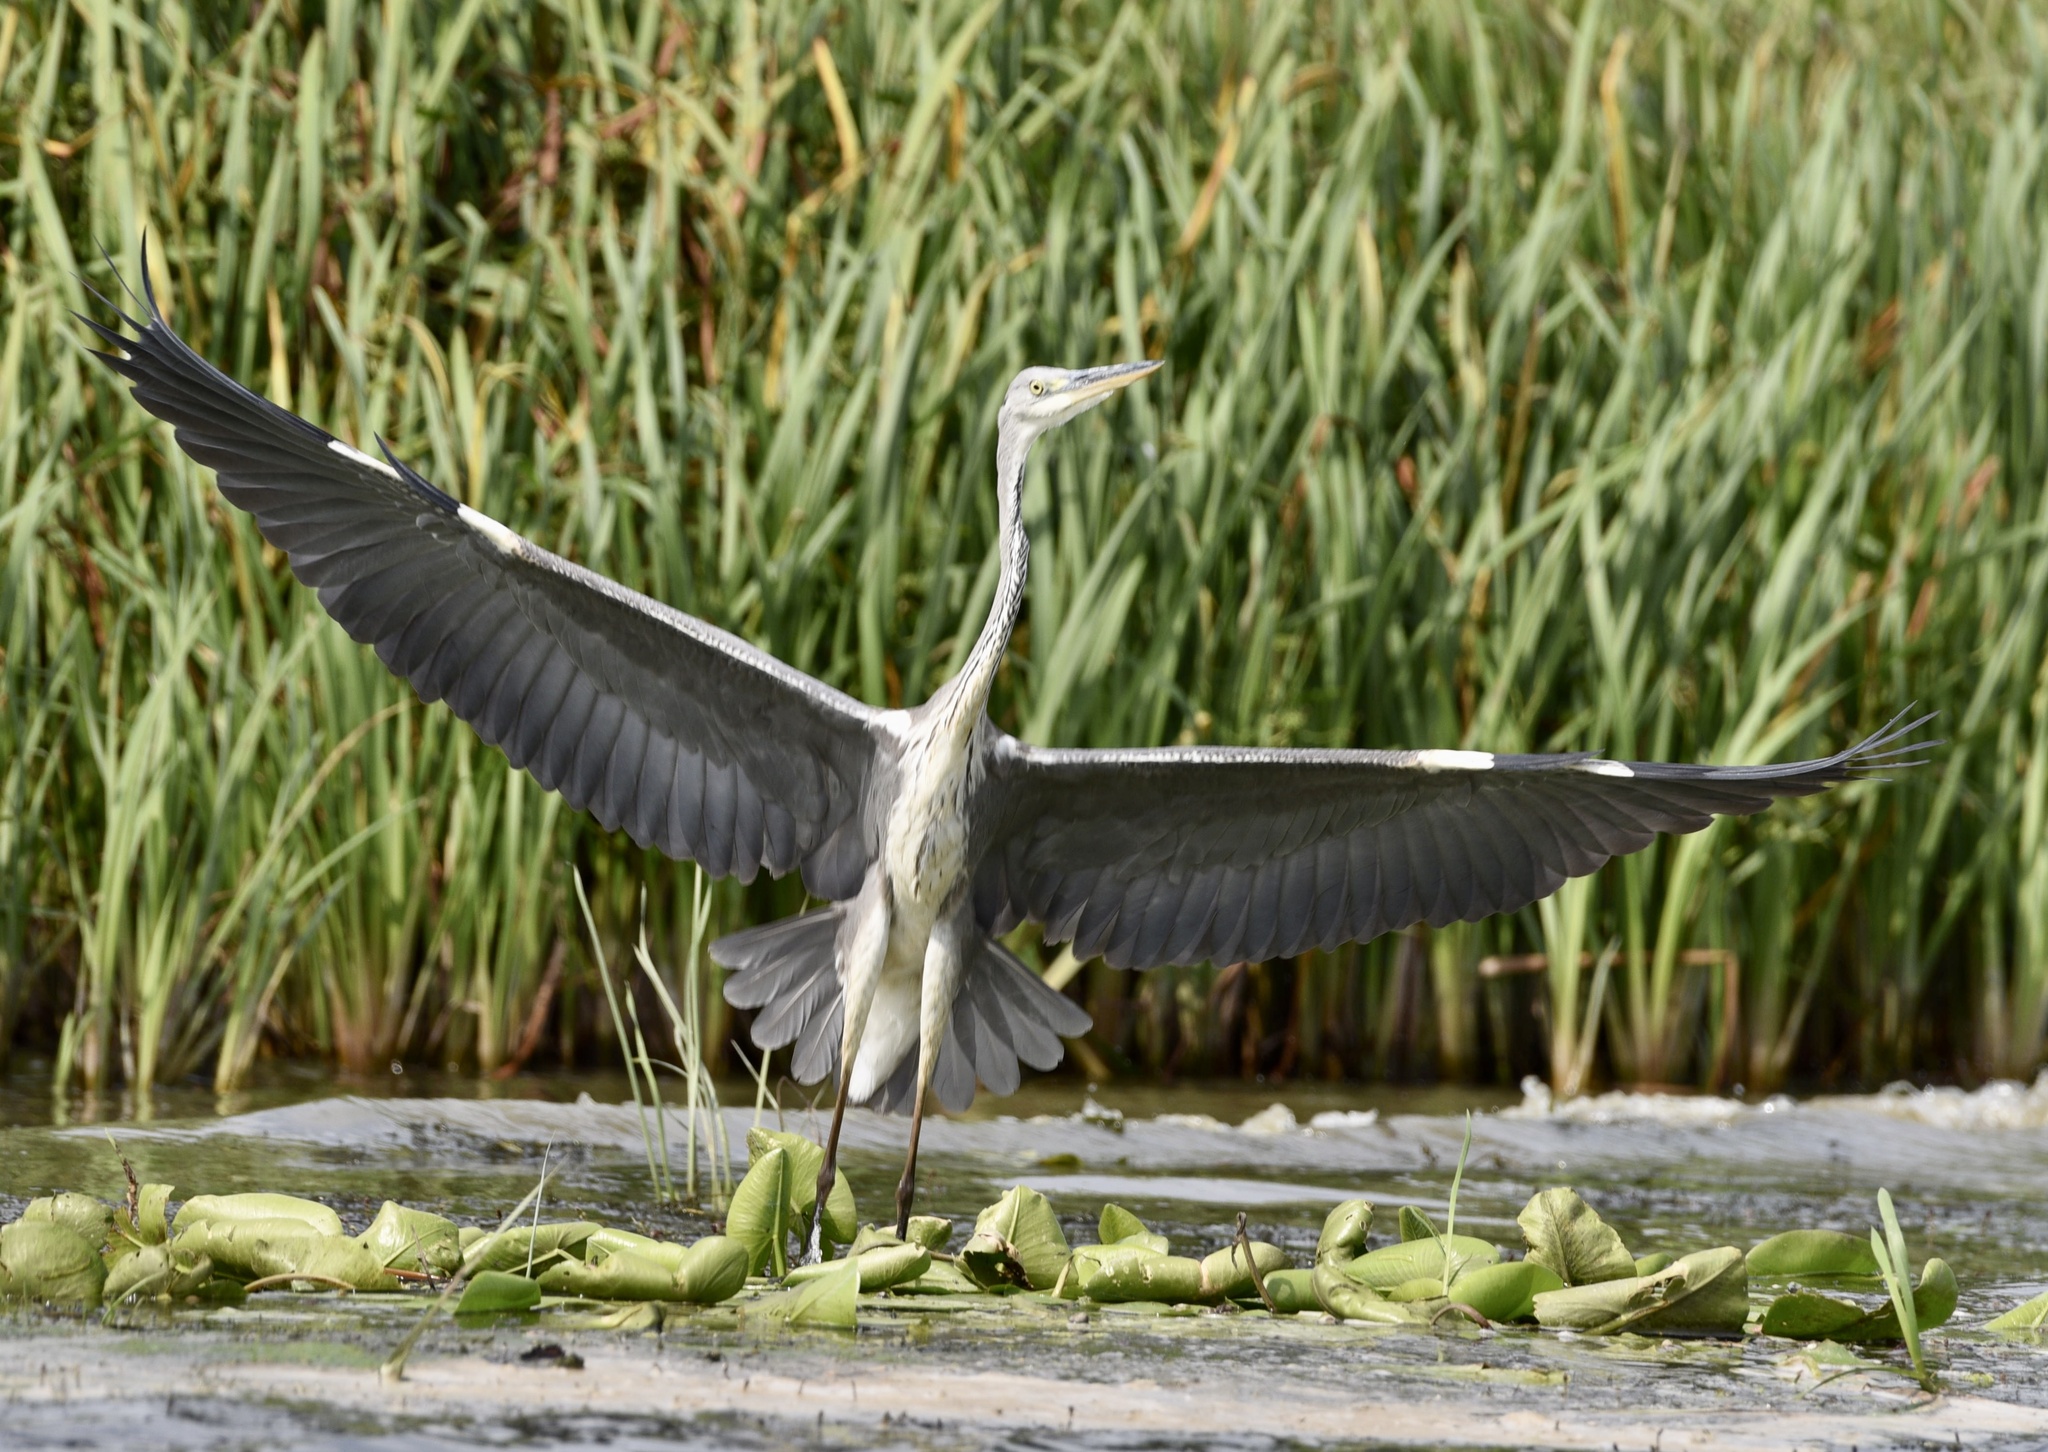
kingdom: Animalia
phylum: Chordata
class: Aves
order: Pelecaniformes
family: Ardeidae
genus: Ardea
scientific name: Ardea cinerea
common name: Grey heron
